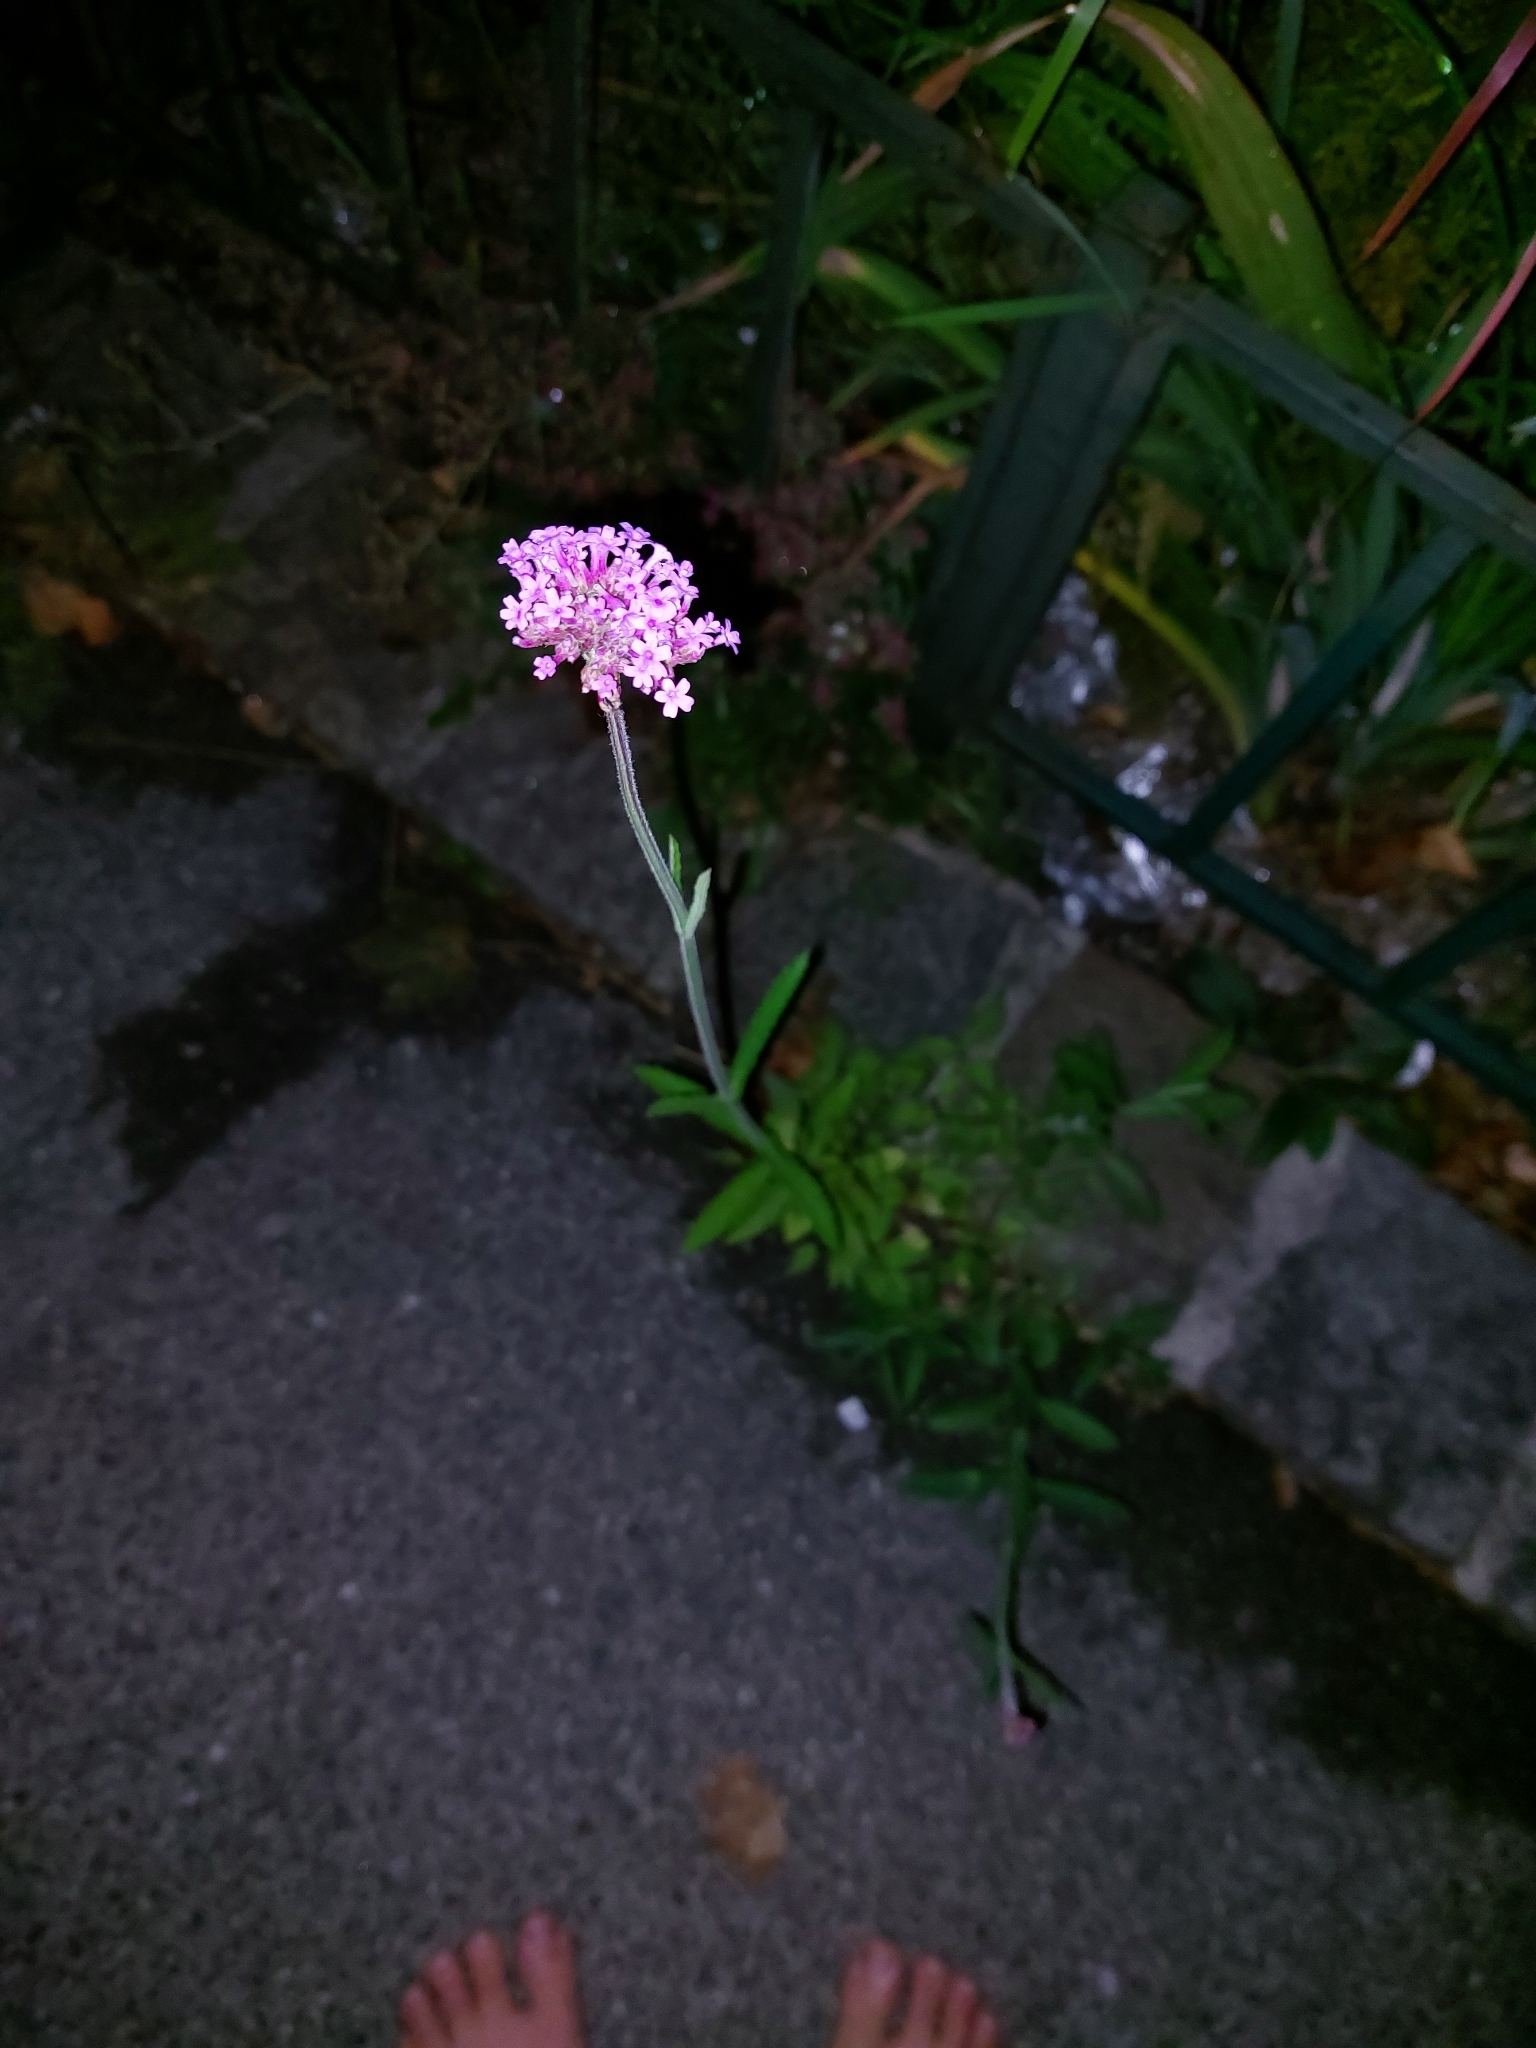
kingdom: Plantae
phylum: Tracheophyta
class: Magnoliopsida
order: Lamiales
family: Verbenaceae
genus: Verbena
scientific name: Verbena bonariensis
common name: Purpletop vervain
